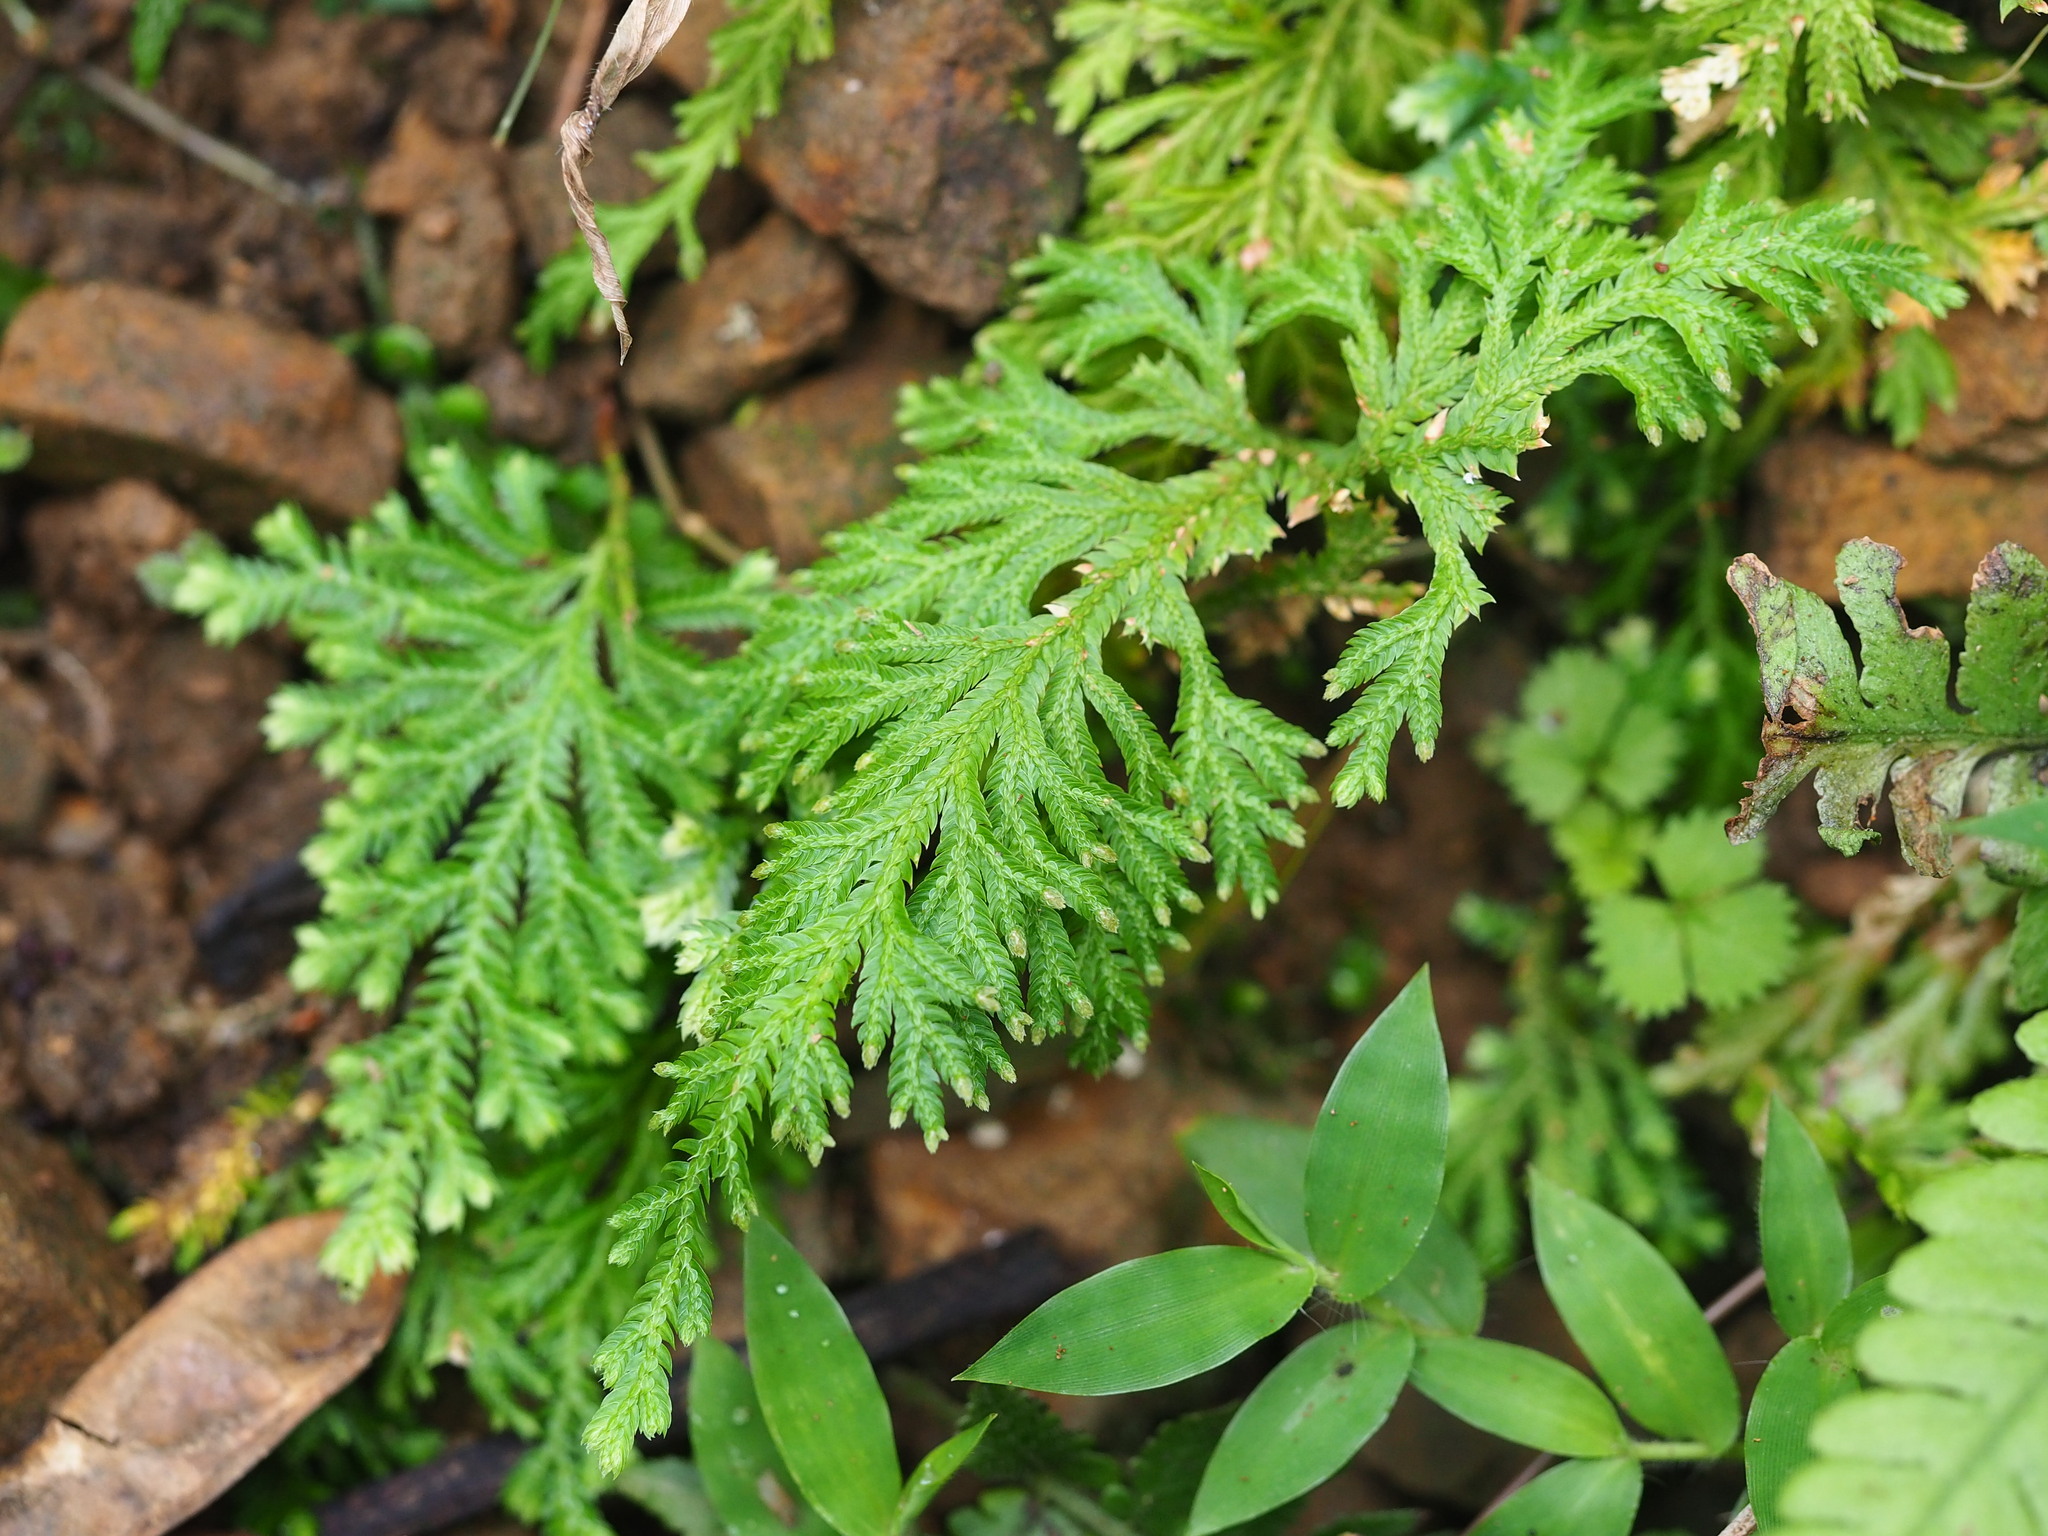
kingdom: Plantae
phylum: Tracheophyta
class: Lycopodiopsida
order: Selaginellales
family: Selaginellaceae
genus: Selaginella
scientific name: Selaginella moellendorffii
